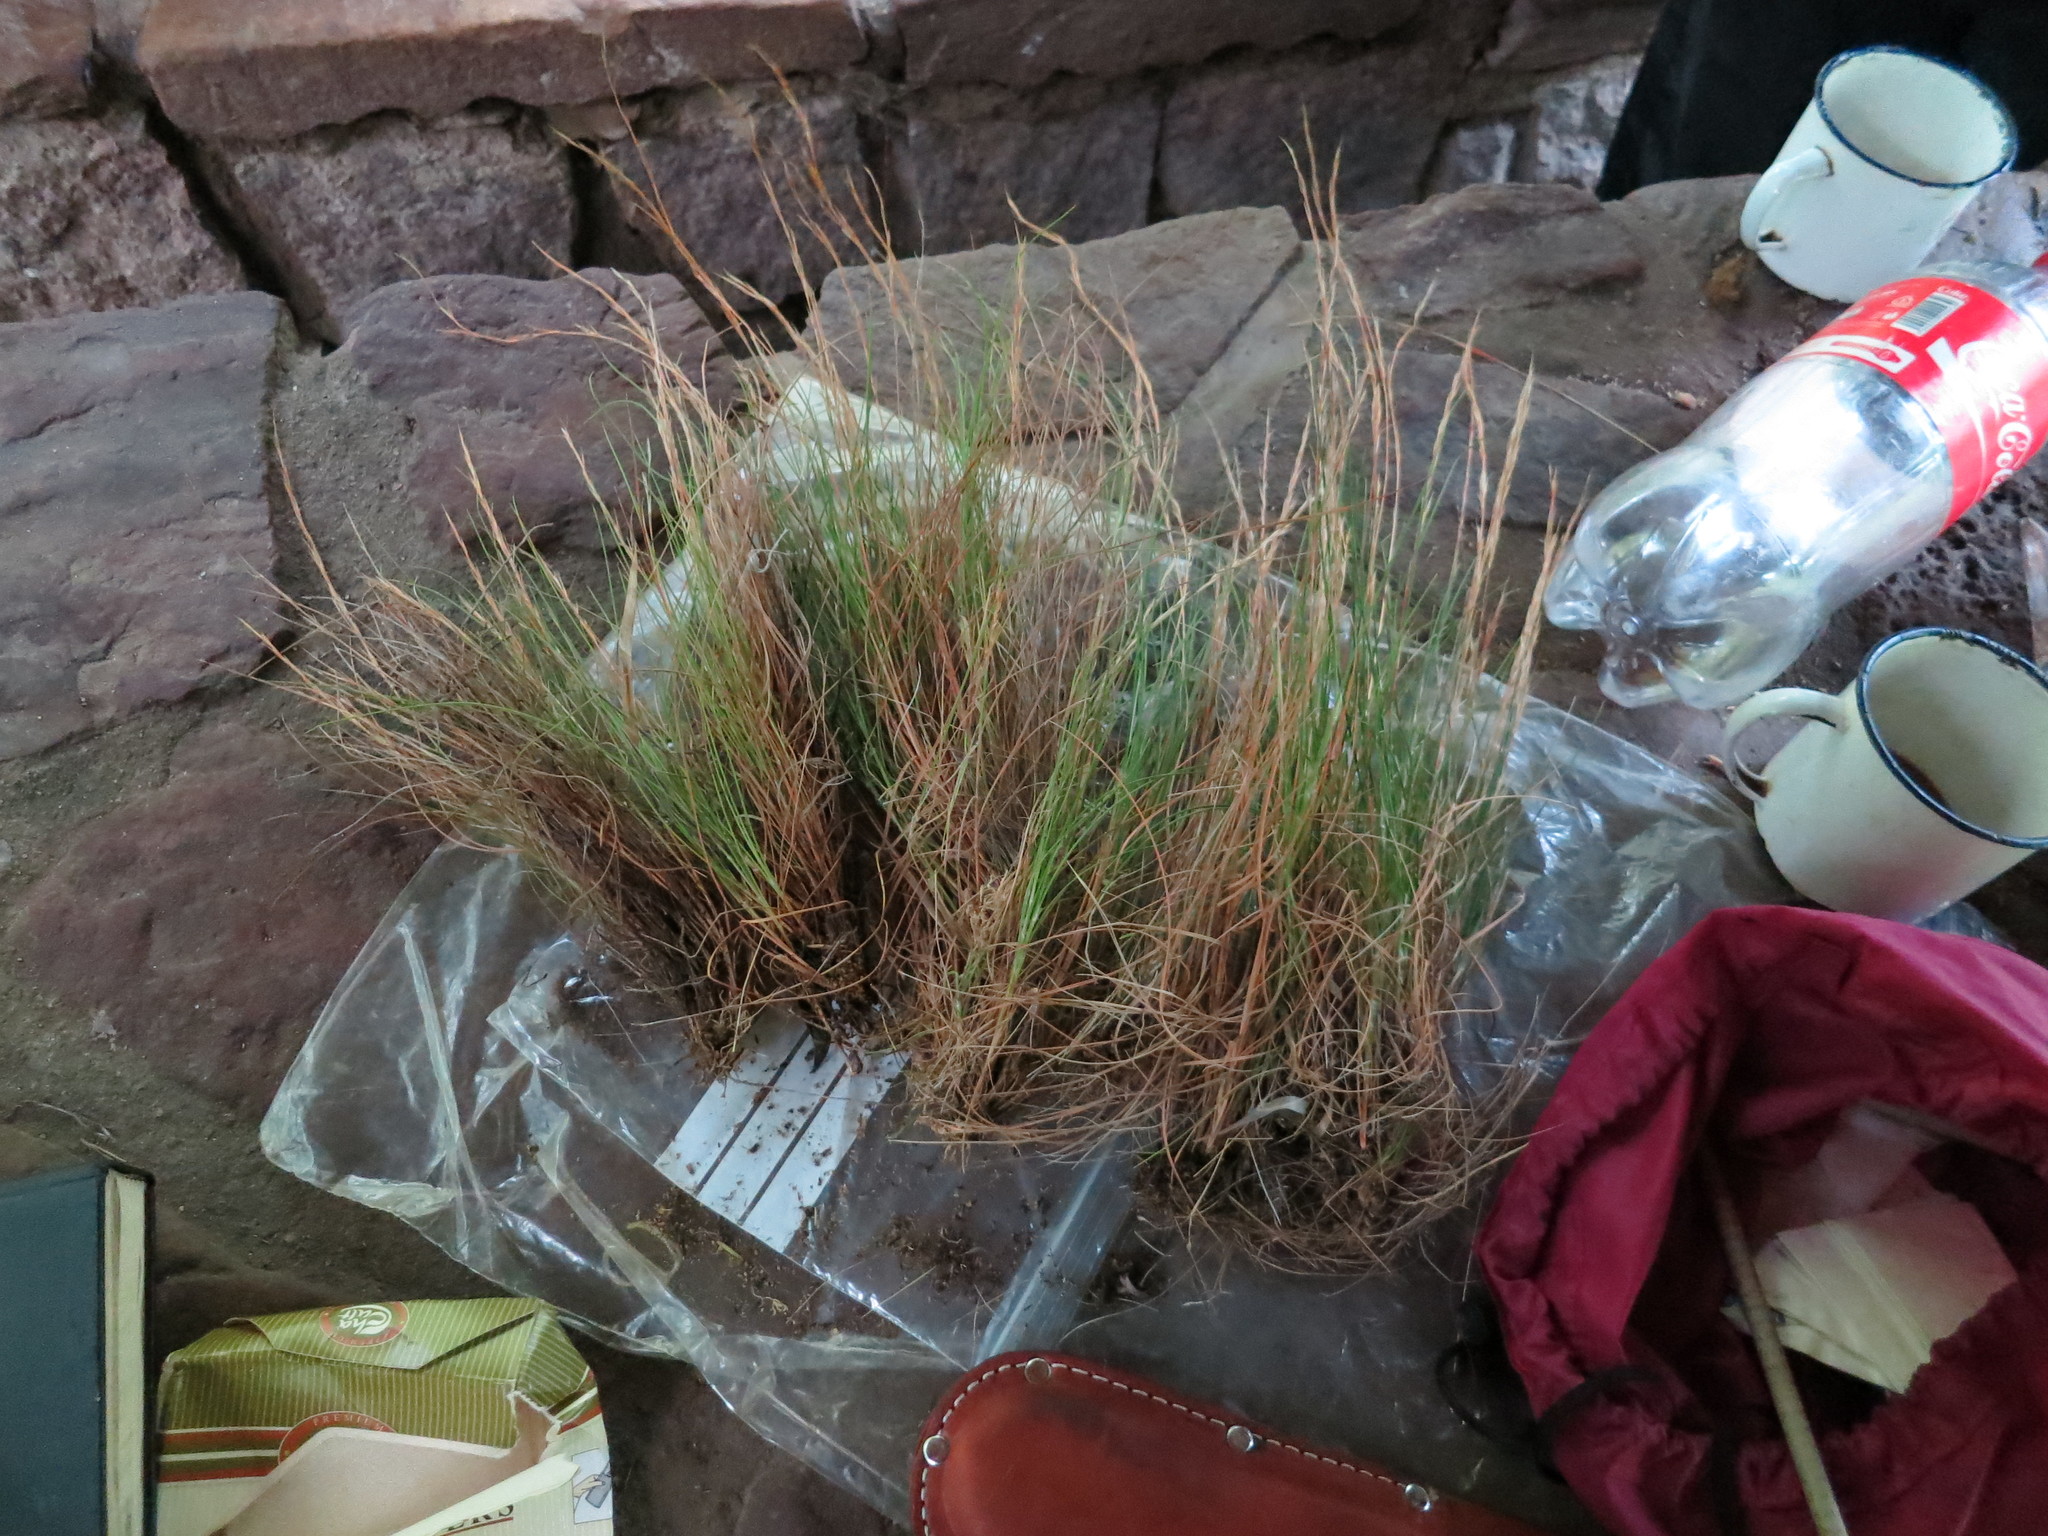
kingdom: Plantae
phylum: Tracheophyta
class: Liliopsida
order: Poales
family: Poaceae
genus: Sartidia
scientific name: Sartidia isaloensis
